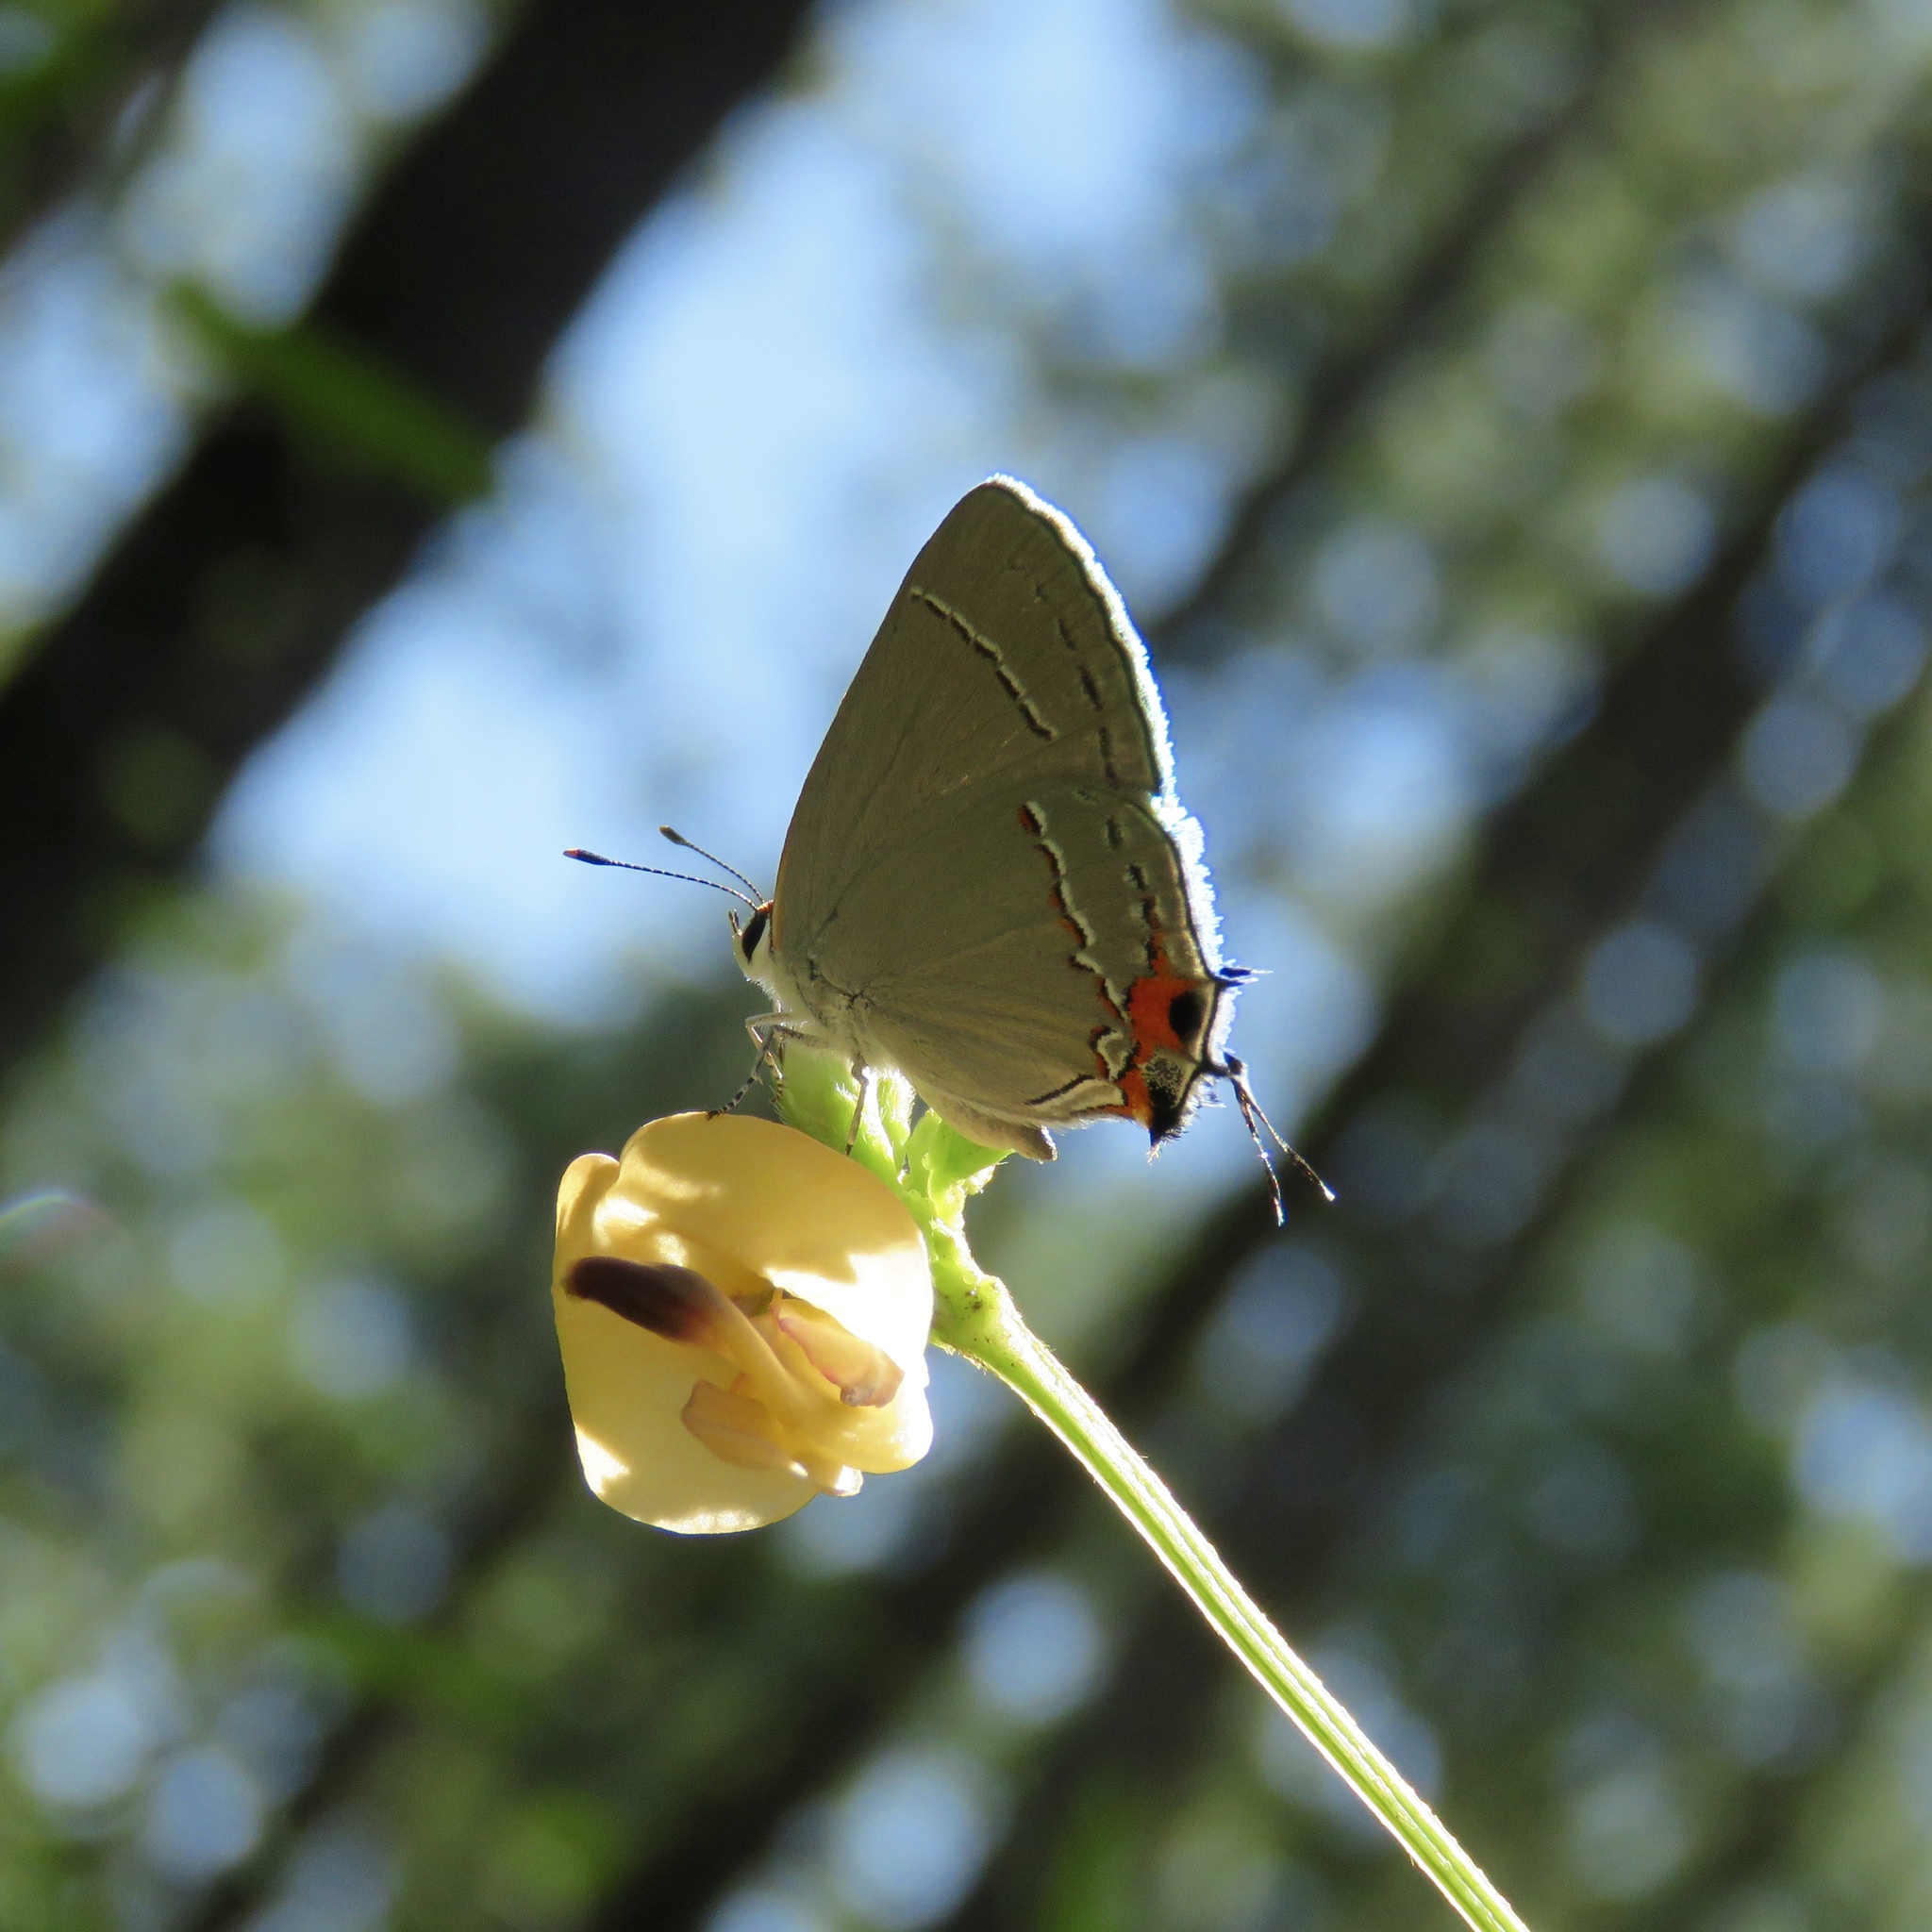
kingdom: Animalia
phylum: Arthropoda
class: Insecta
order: Lepidoptera
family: Lycaenidae
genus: Strymon
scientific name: Strymon melinus
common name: Gray hairstreak
